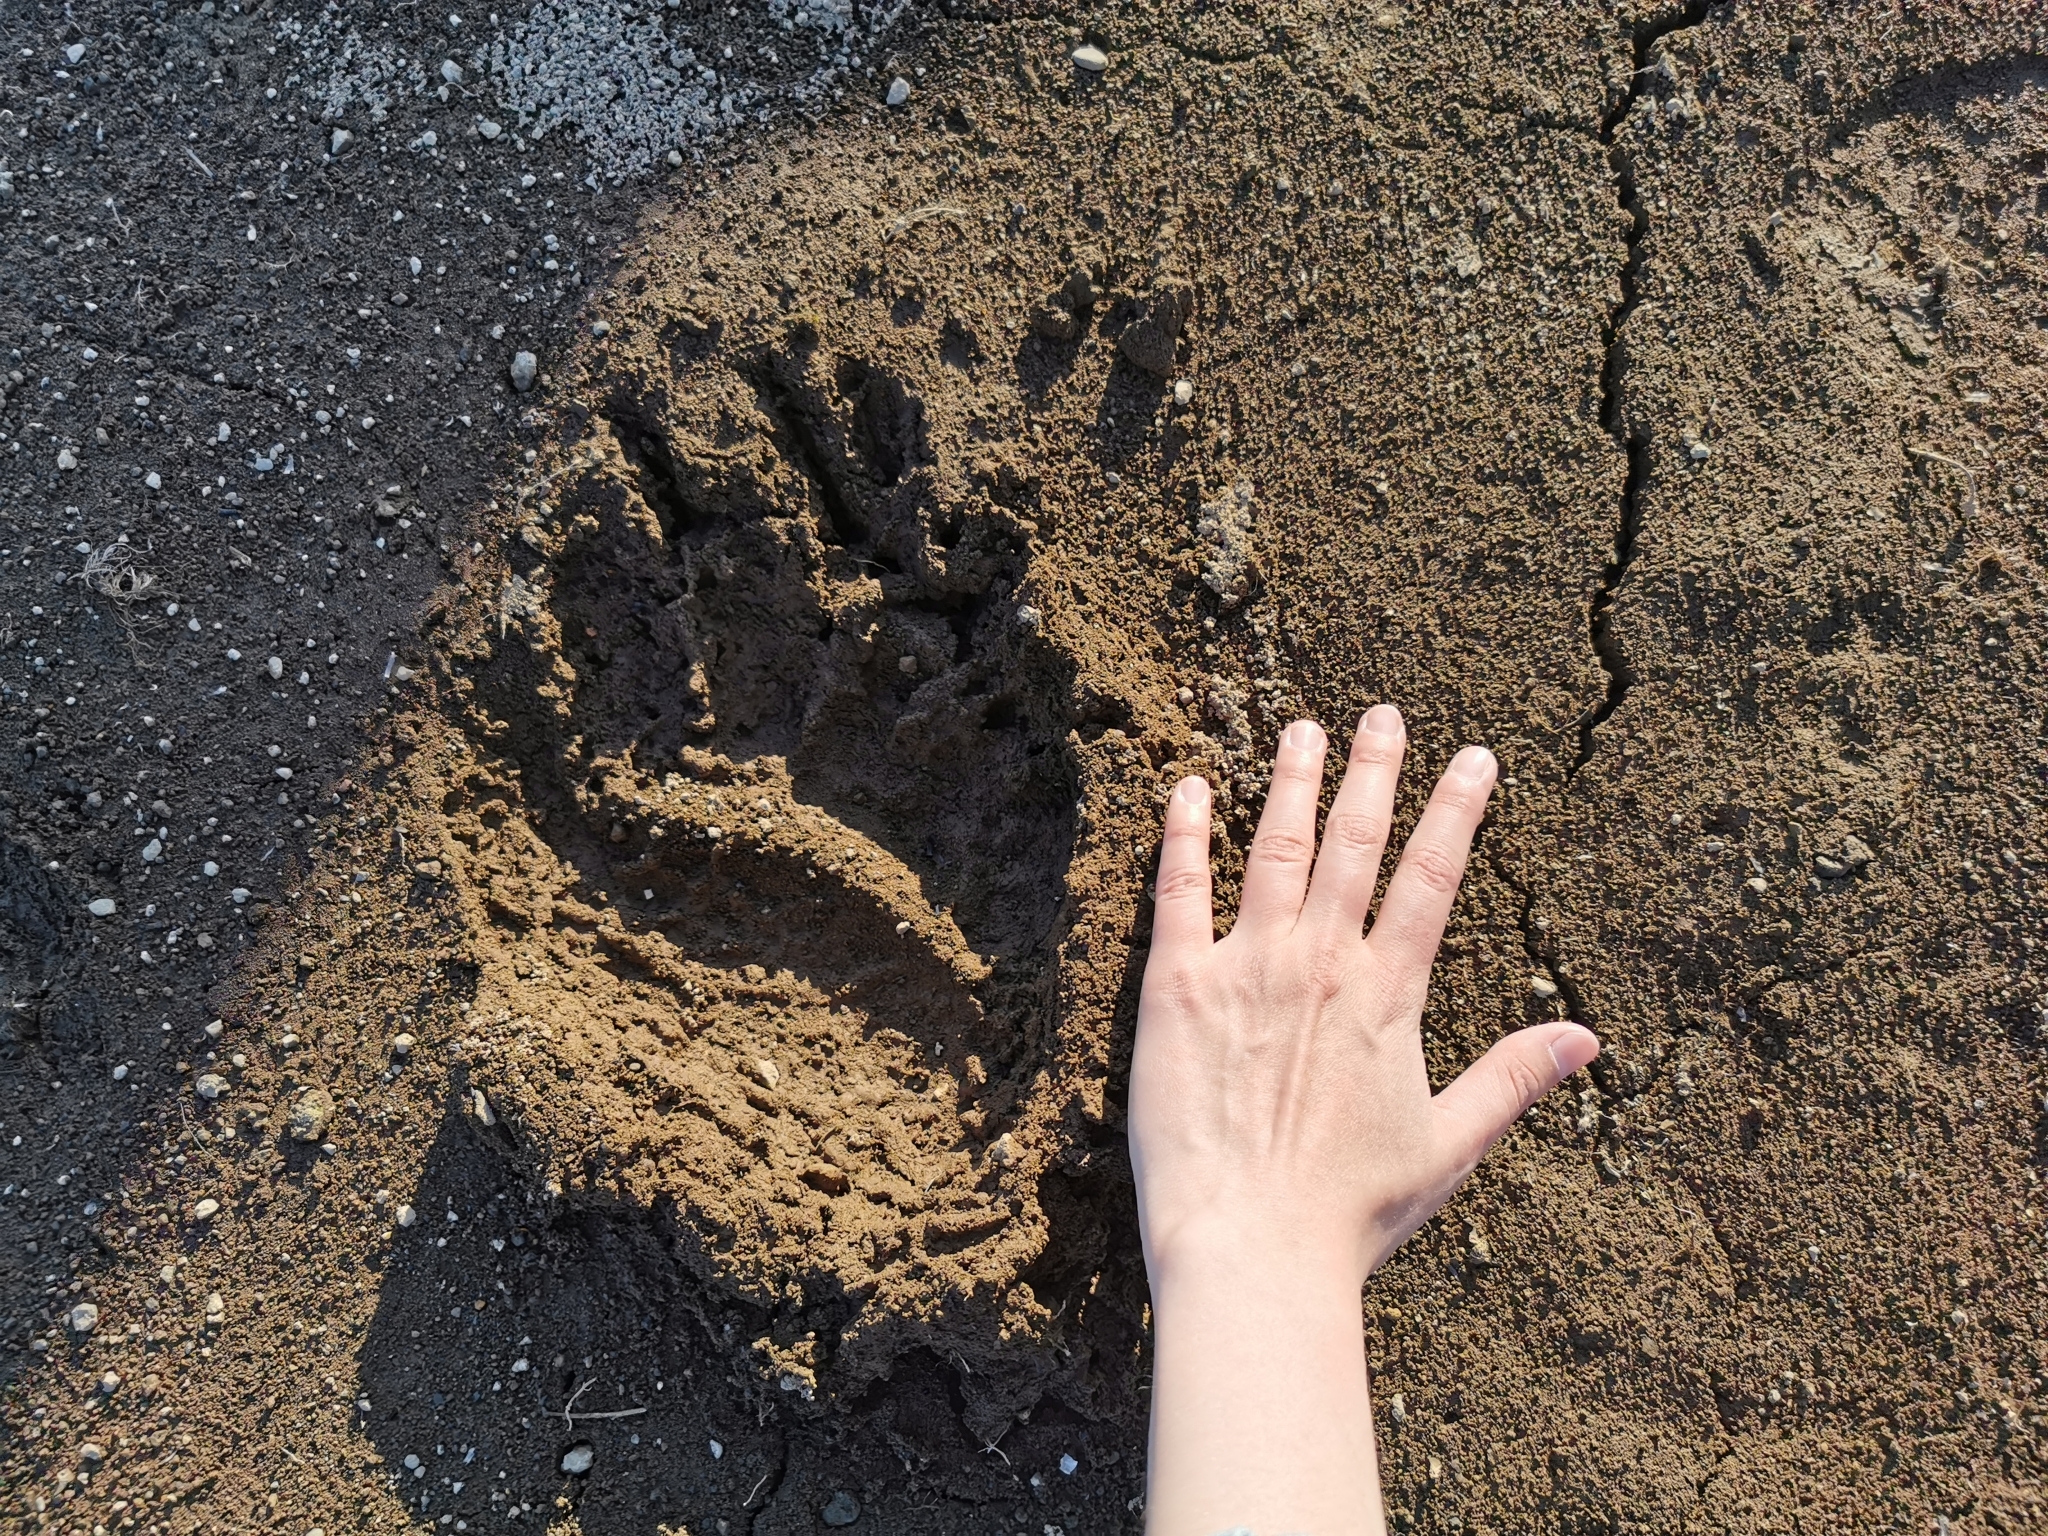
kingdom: Animalia
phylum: Chordata
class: Mammalia
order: Carnivora
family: Ursidae
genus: Ursus
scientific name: Ursus arctos
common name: Brown bear
